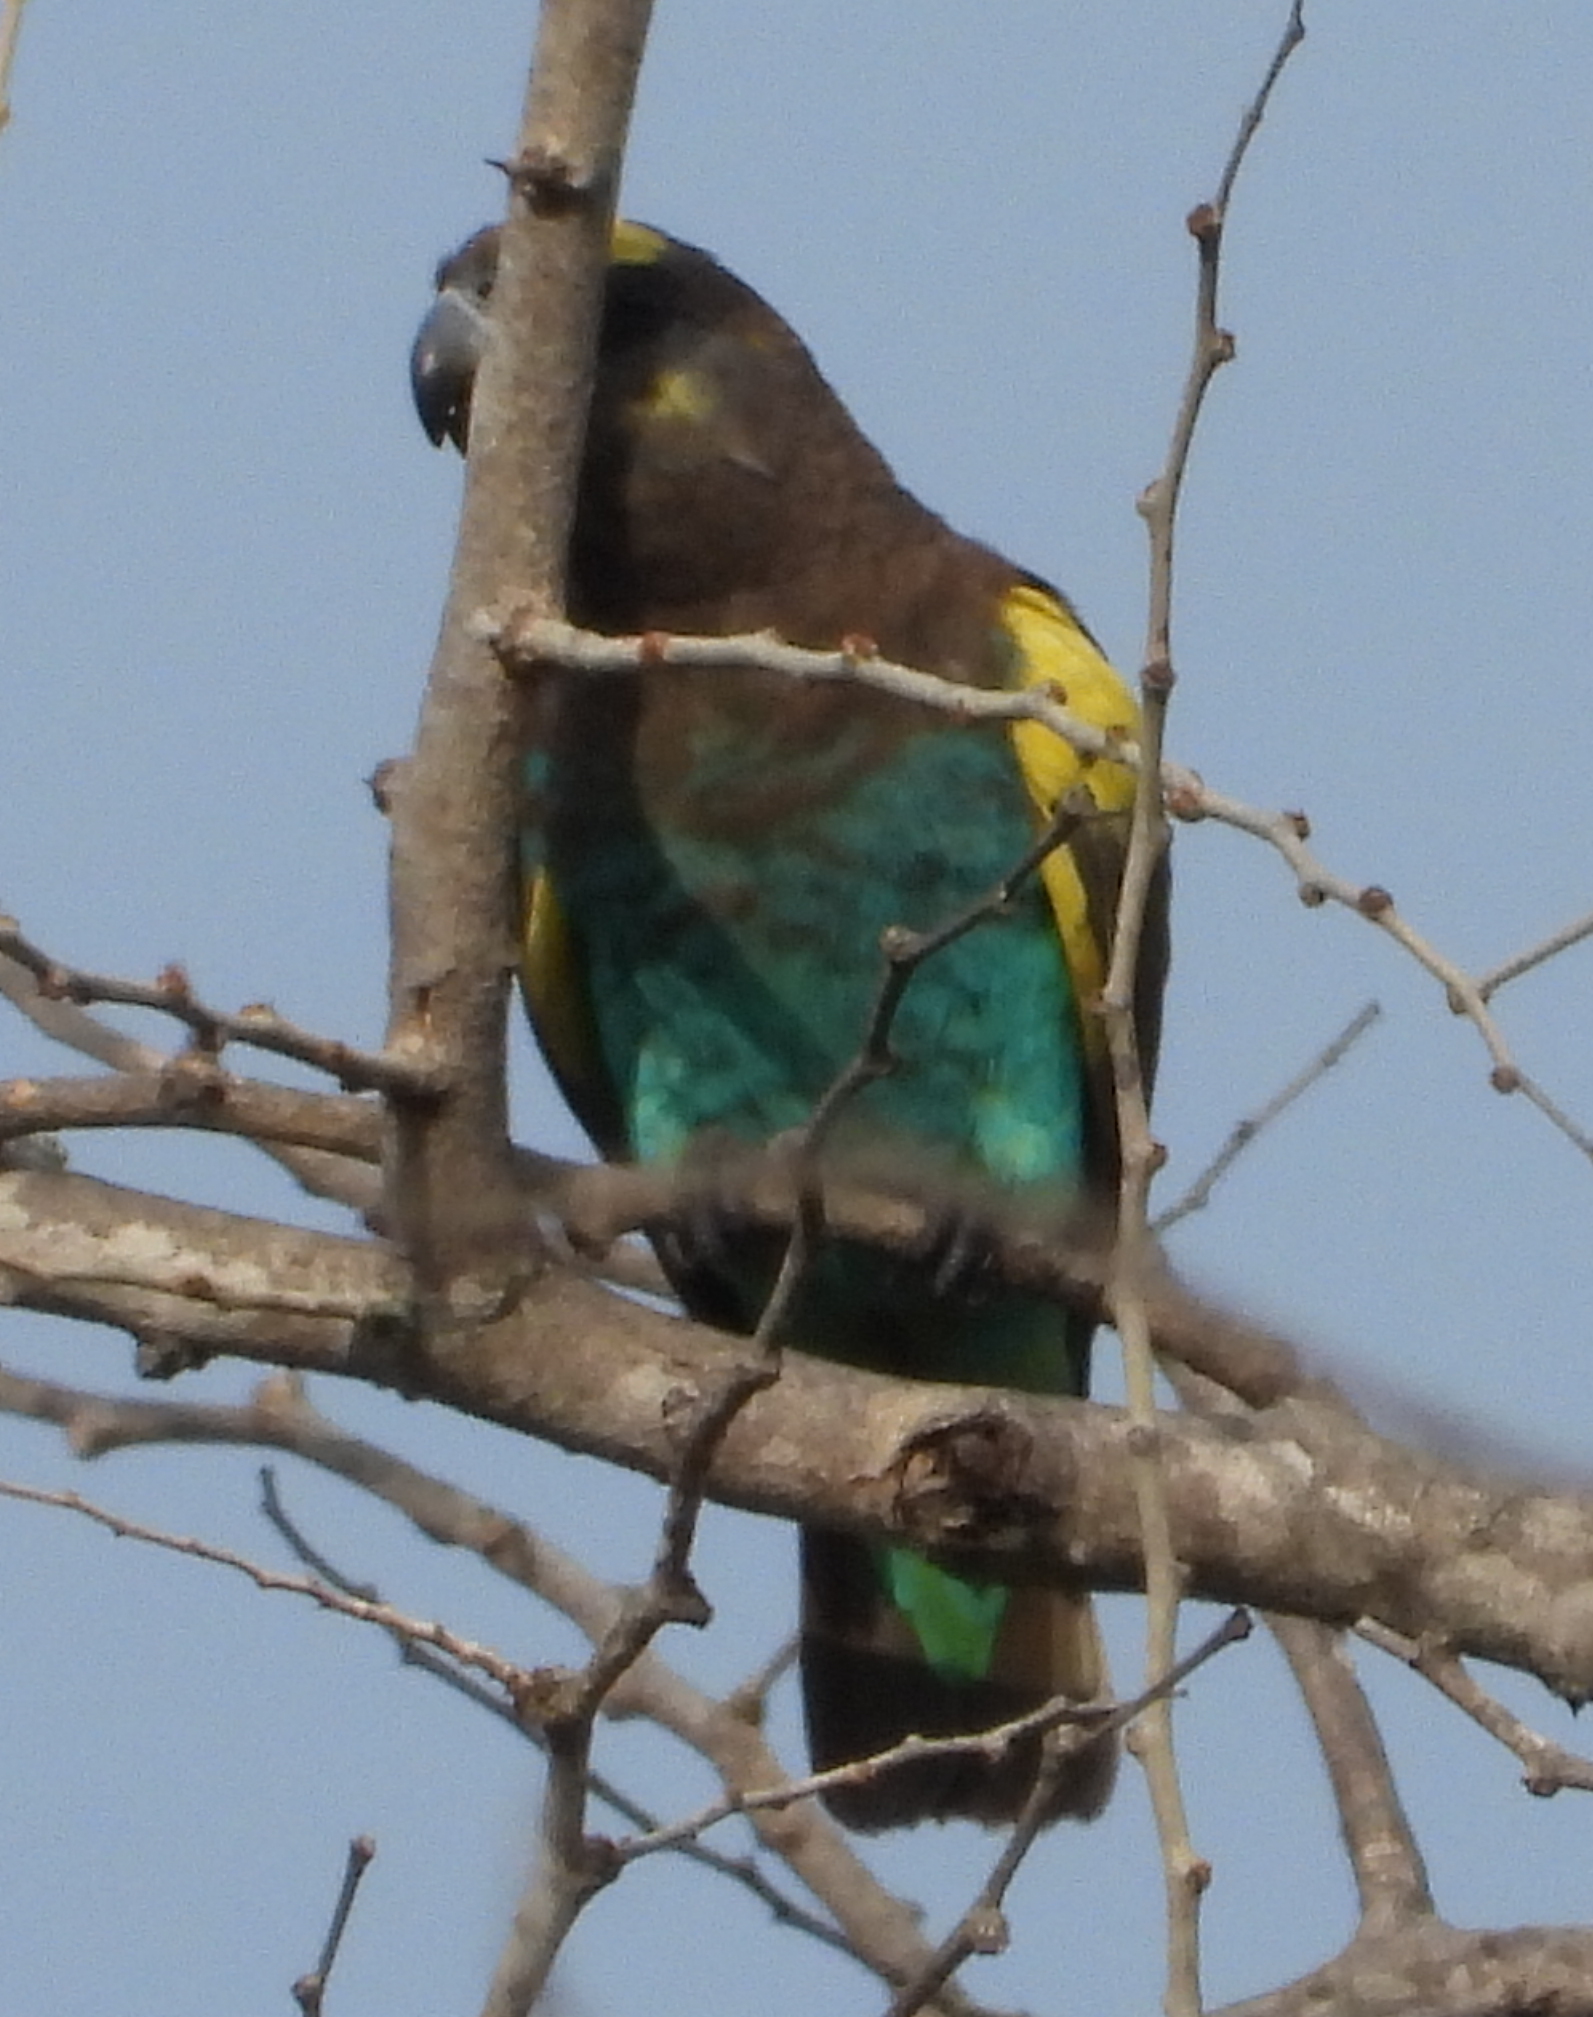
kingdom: Animalia
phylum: Chordata
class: Aves
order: Psittaciformes
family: Psittacidae
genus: Poicephalus
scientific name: Poicephalus meyeri
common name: Meyer's parrot
